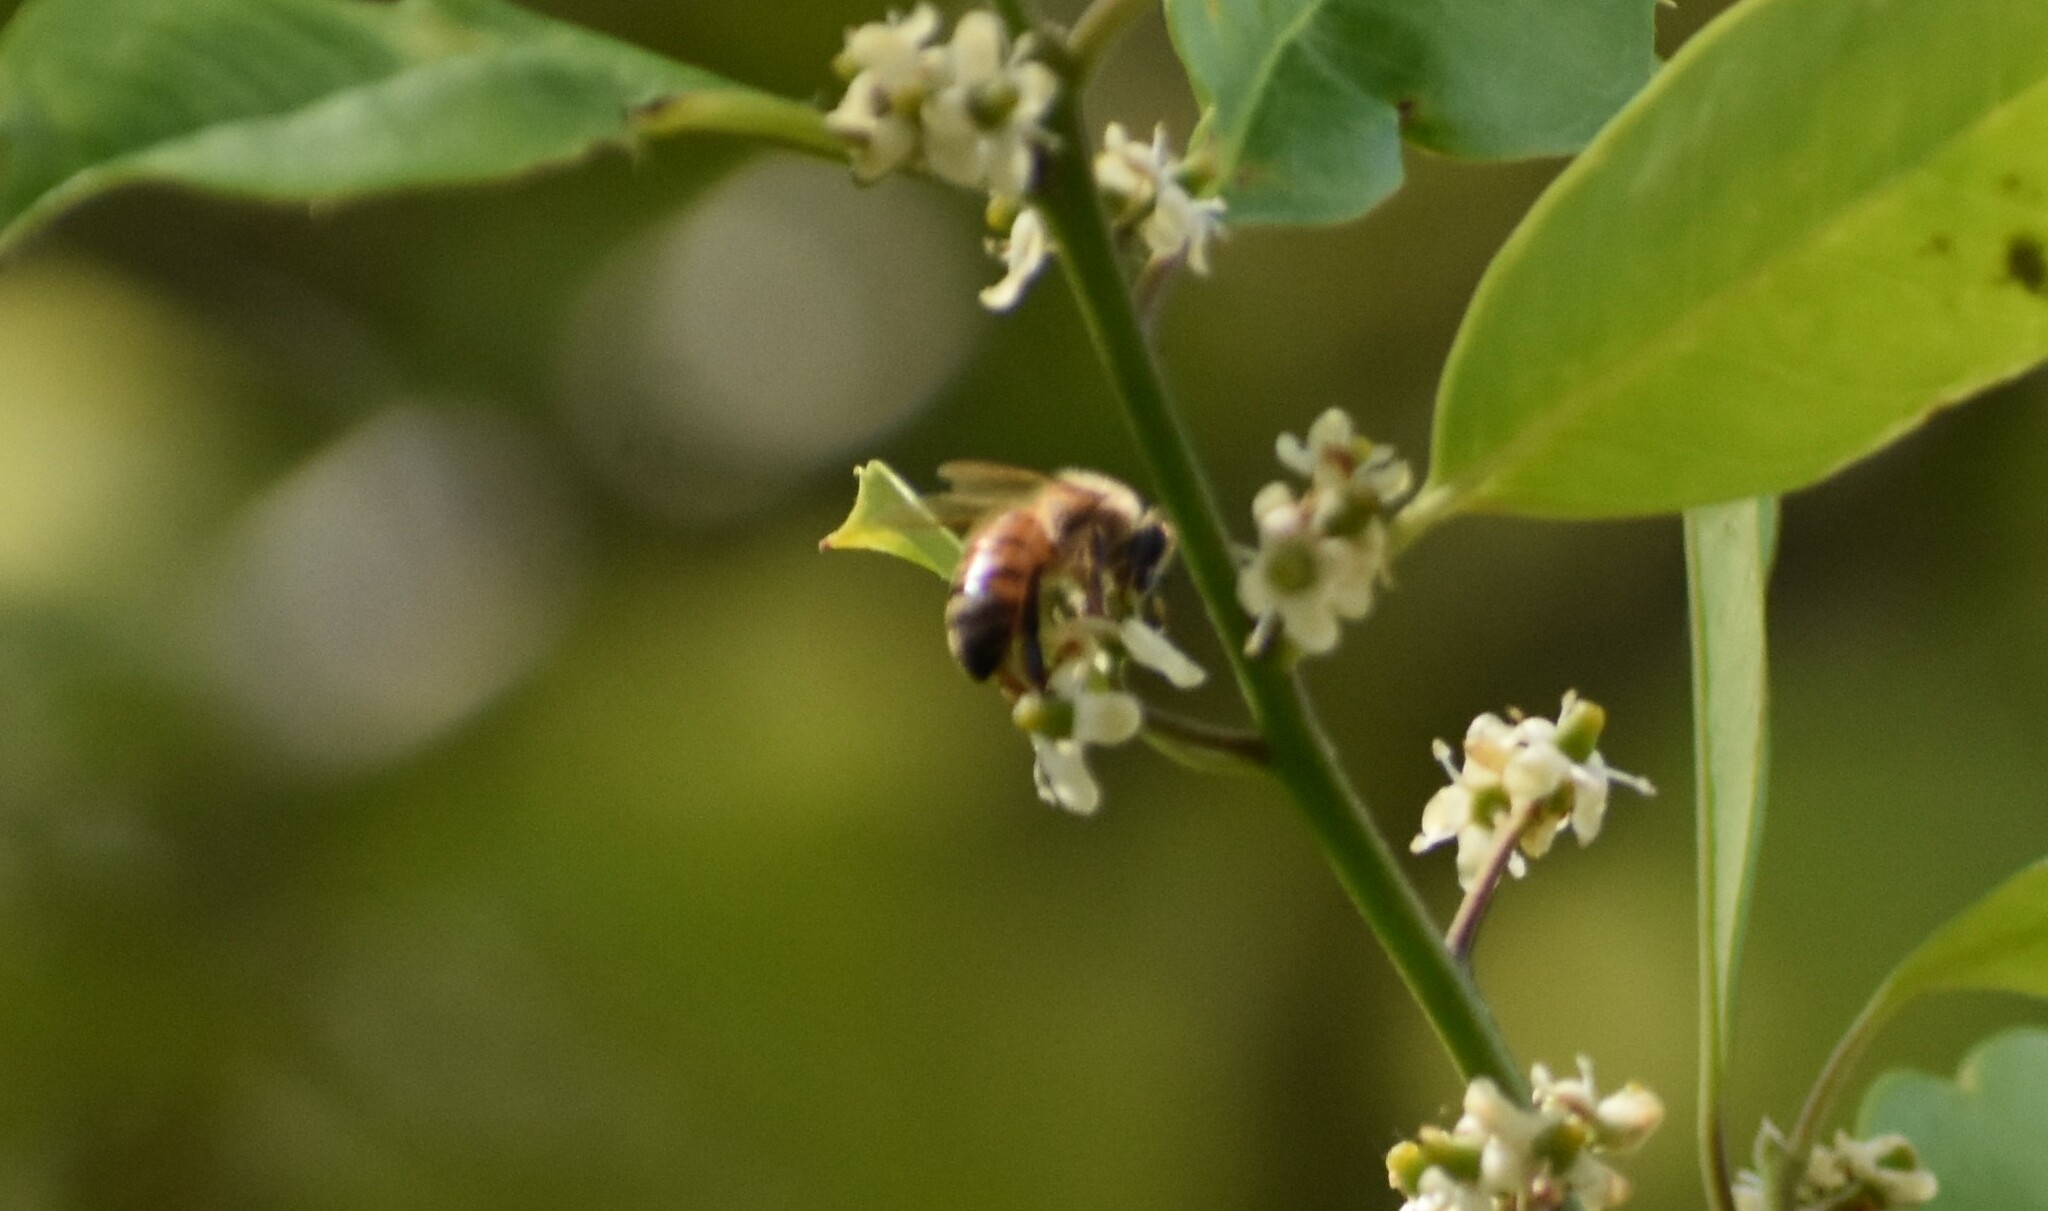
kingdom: Animalia
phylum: Arthropoda
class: Insecta
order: Hymenoptera
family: Apidae
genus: Apis
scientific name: Apis mellifera
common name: Honey bee
